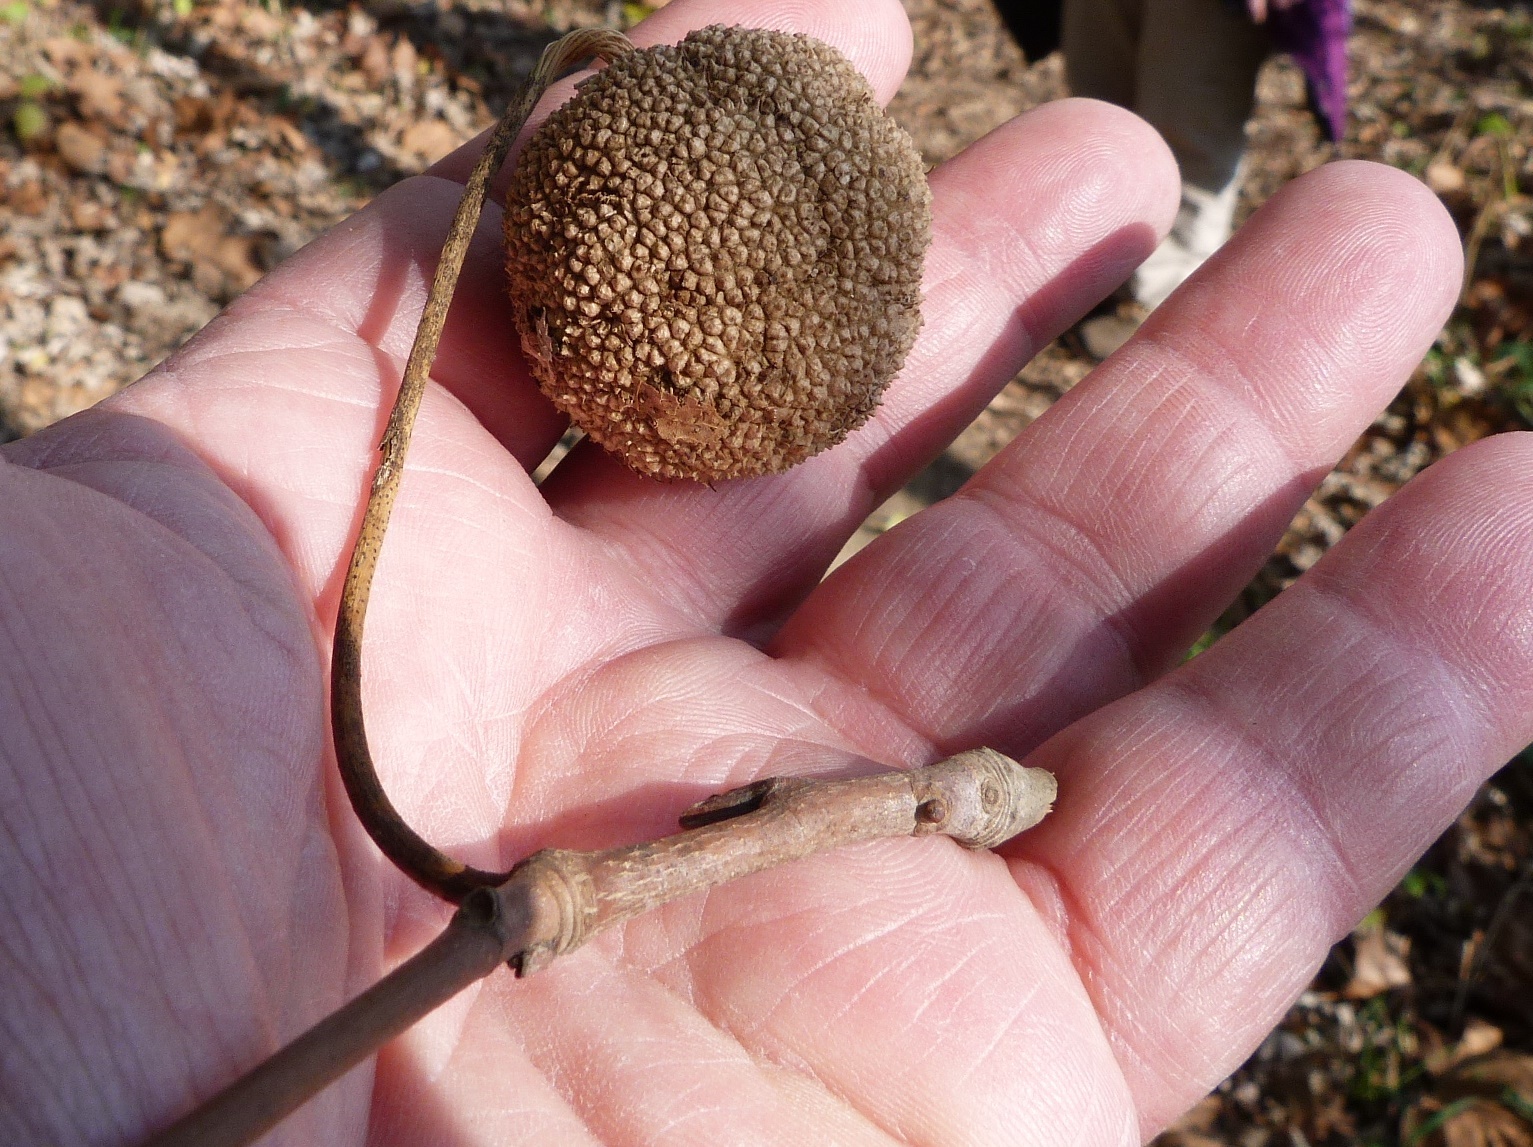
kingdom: Plantae
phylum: Tracheophyta
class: Magnoliopsida
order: Proteales
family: Platanaceae
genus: Platanus
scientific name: Platanus occidentalis
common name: American sycamore
